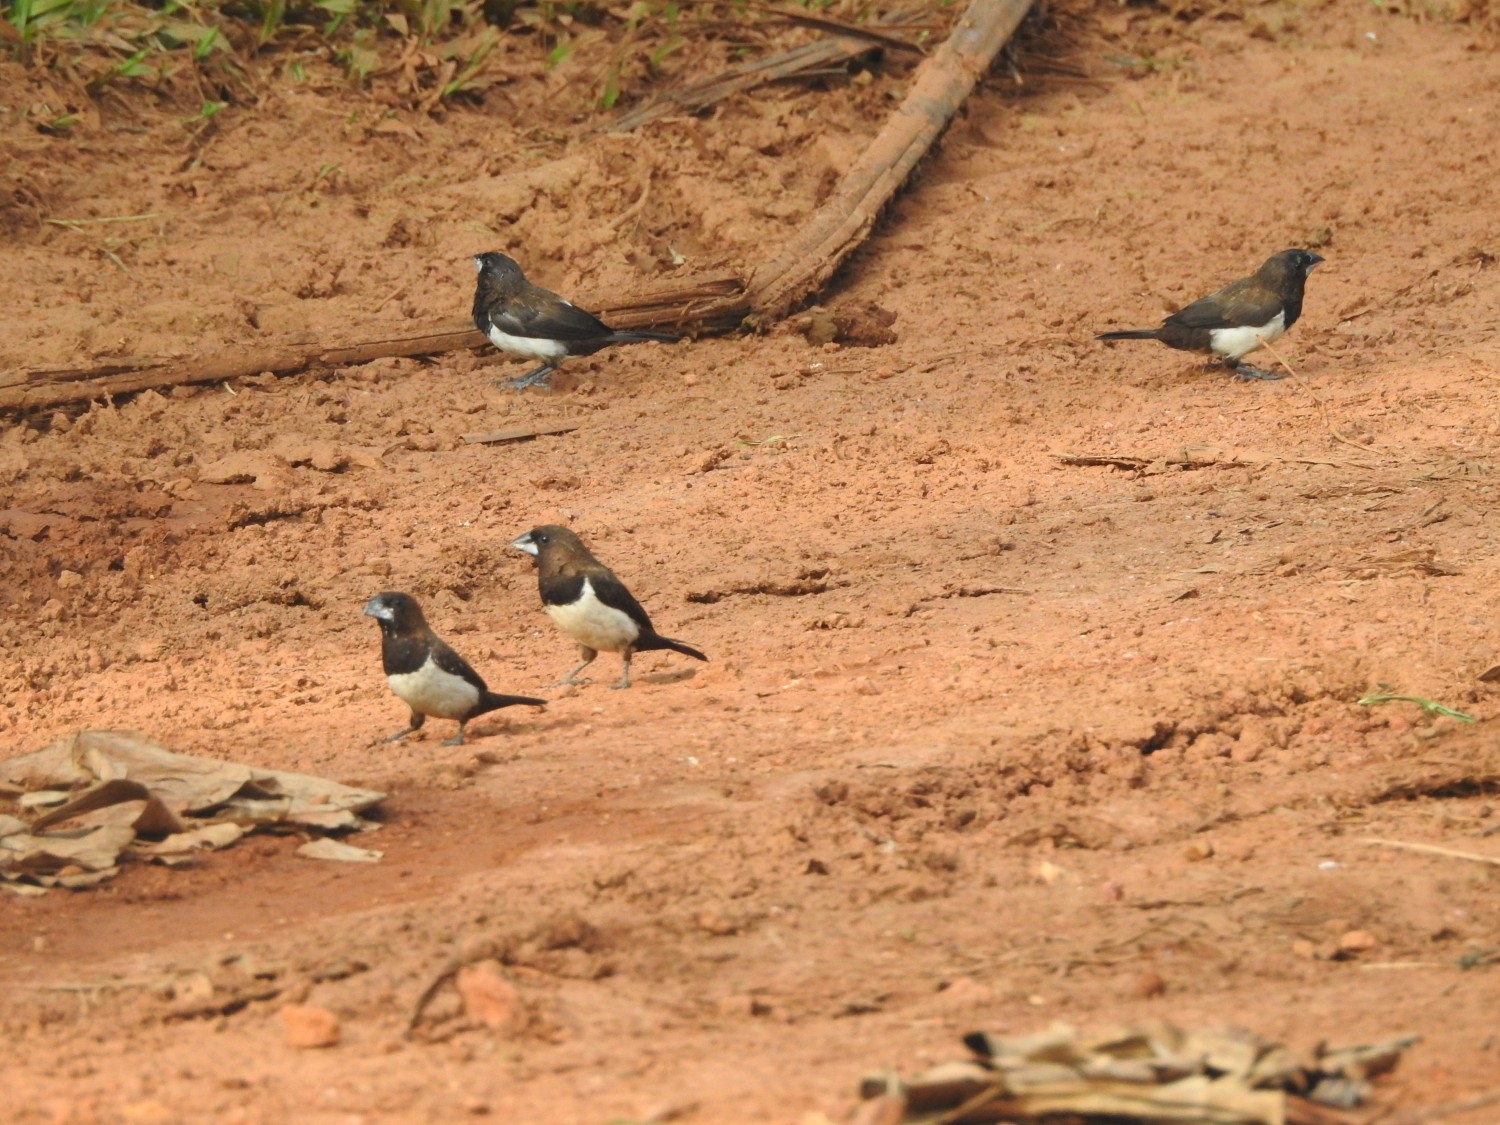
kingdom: Animalia
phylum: Chordata
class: Aves
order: Passeriformes
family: Estrildidae
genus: Lonchura
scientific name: Lonchura striata
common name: White-rumped munia
